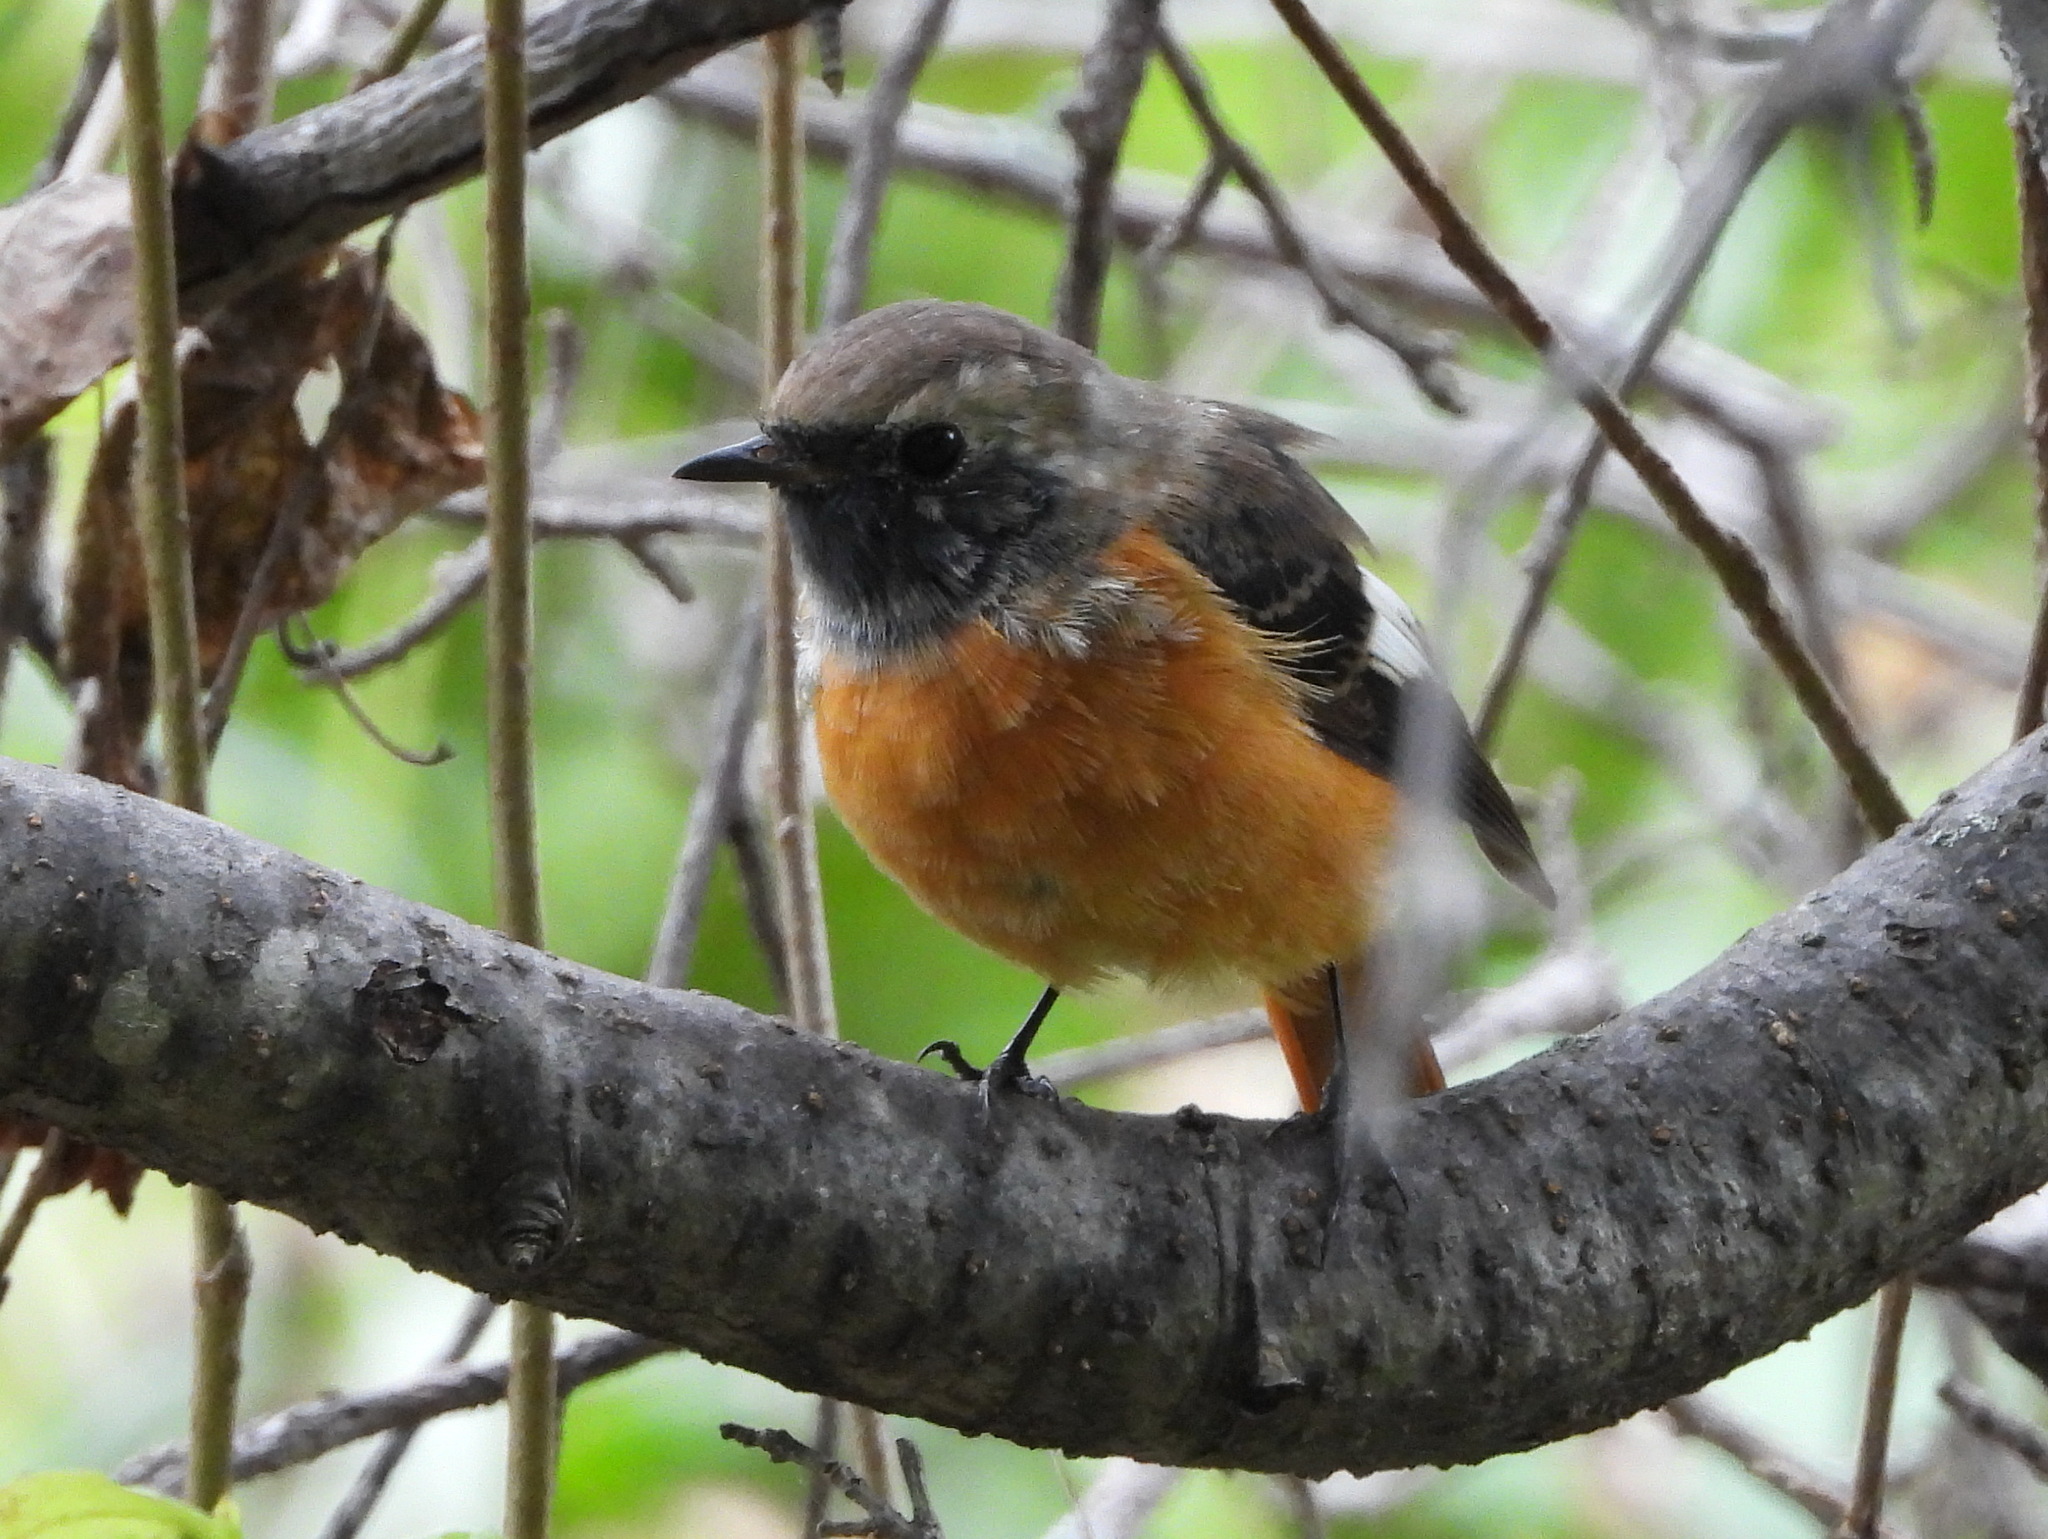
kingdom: Animalia
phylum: Chordata
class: Aves
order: Passeriformes
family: Muscicapidae
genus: Phoenicurus
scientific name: Phoenicurus auroreus
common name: Daurian redstart
